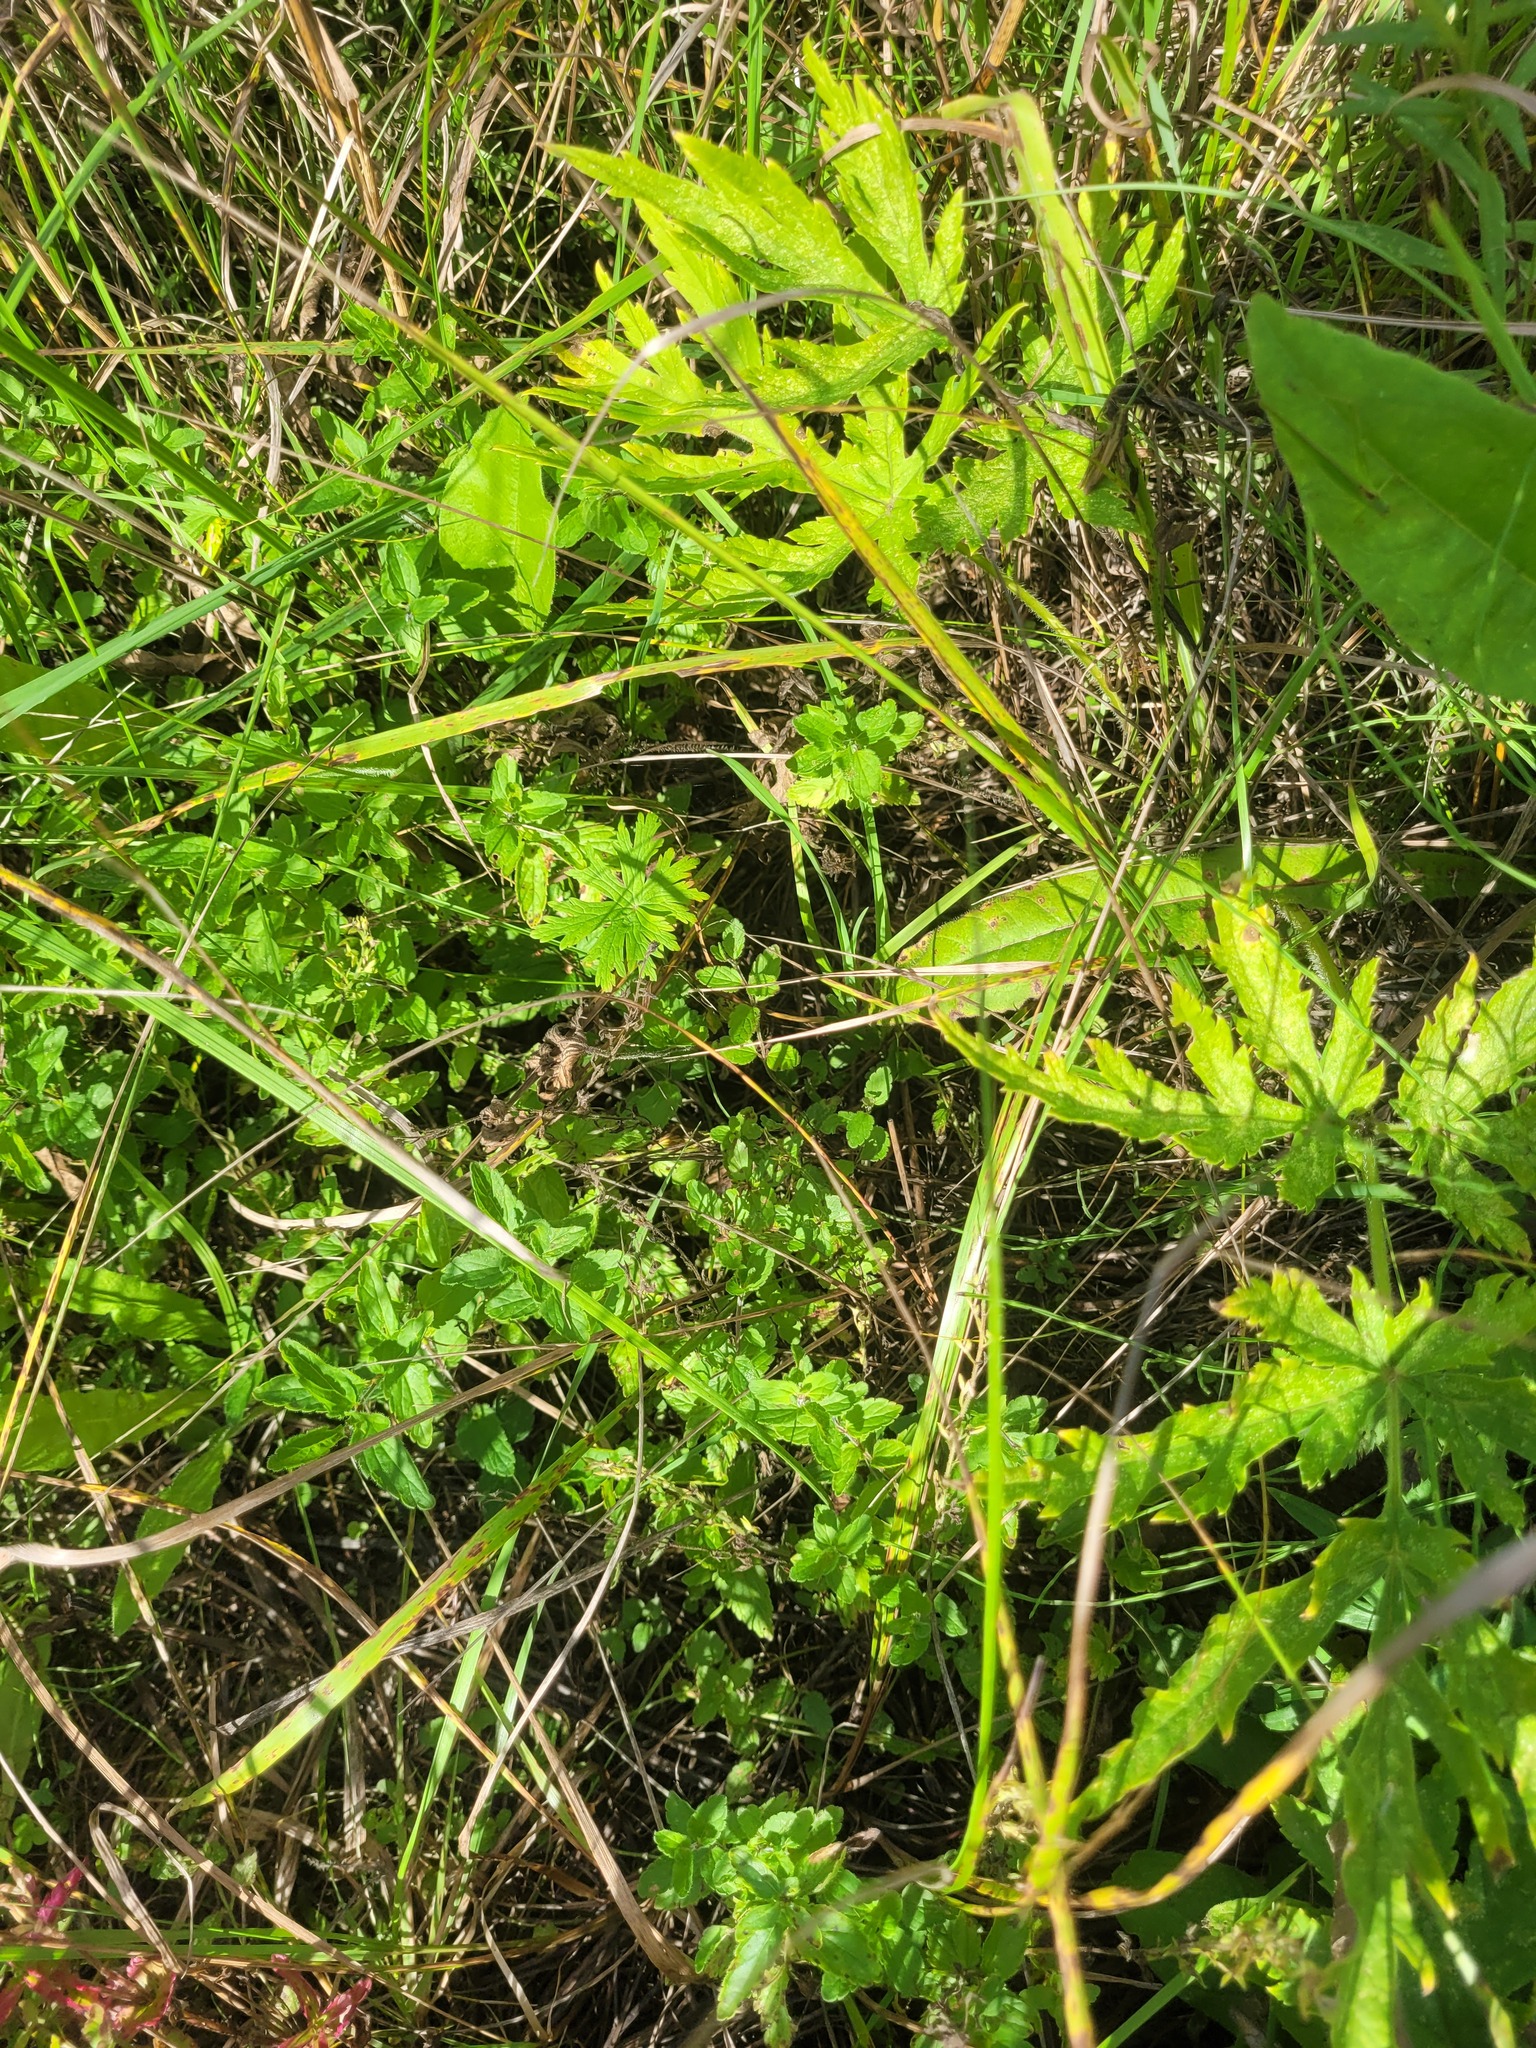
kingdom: Plantae
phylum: Tracheophyta
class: Magnoliopsida
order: Lamiales
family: Plantaginaceae
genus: Veronica
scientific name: Veronica chamaedrys
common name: Germander speedwell
